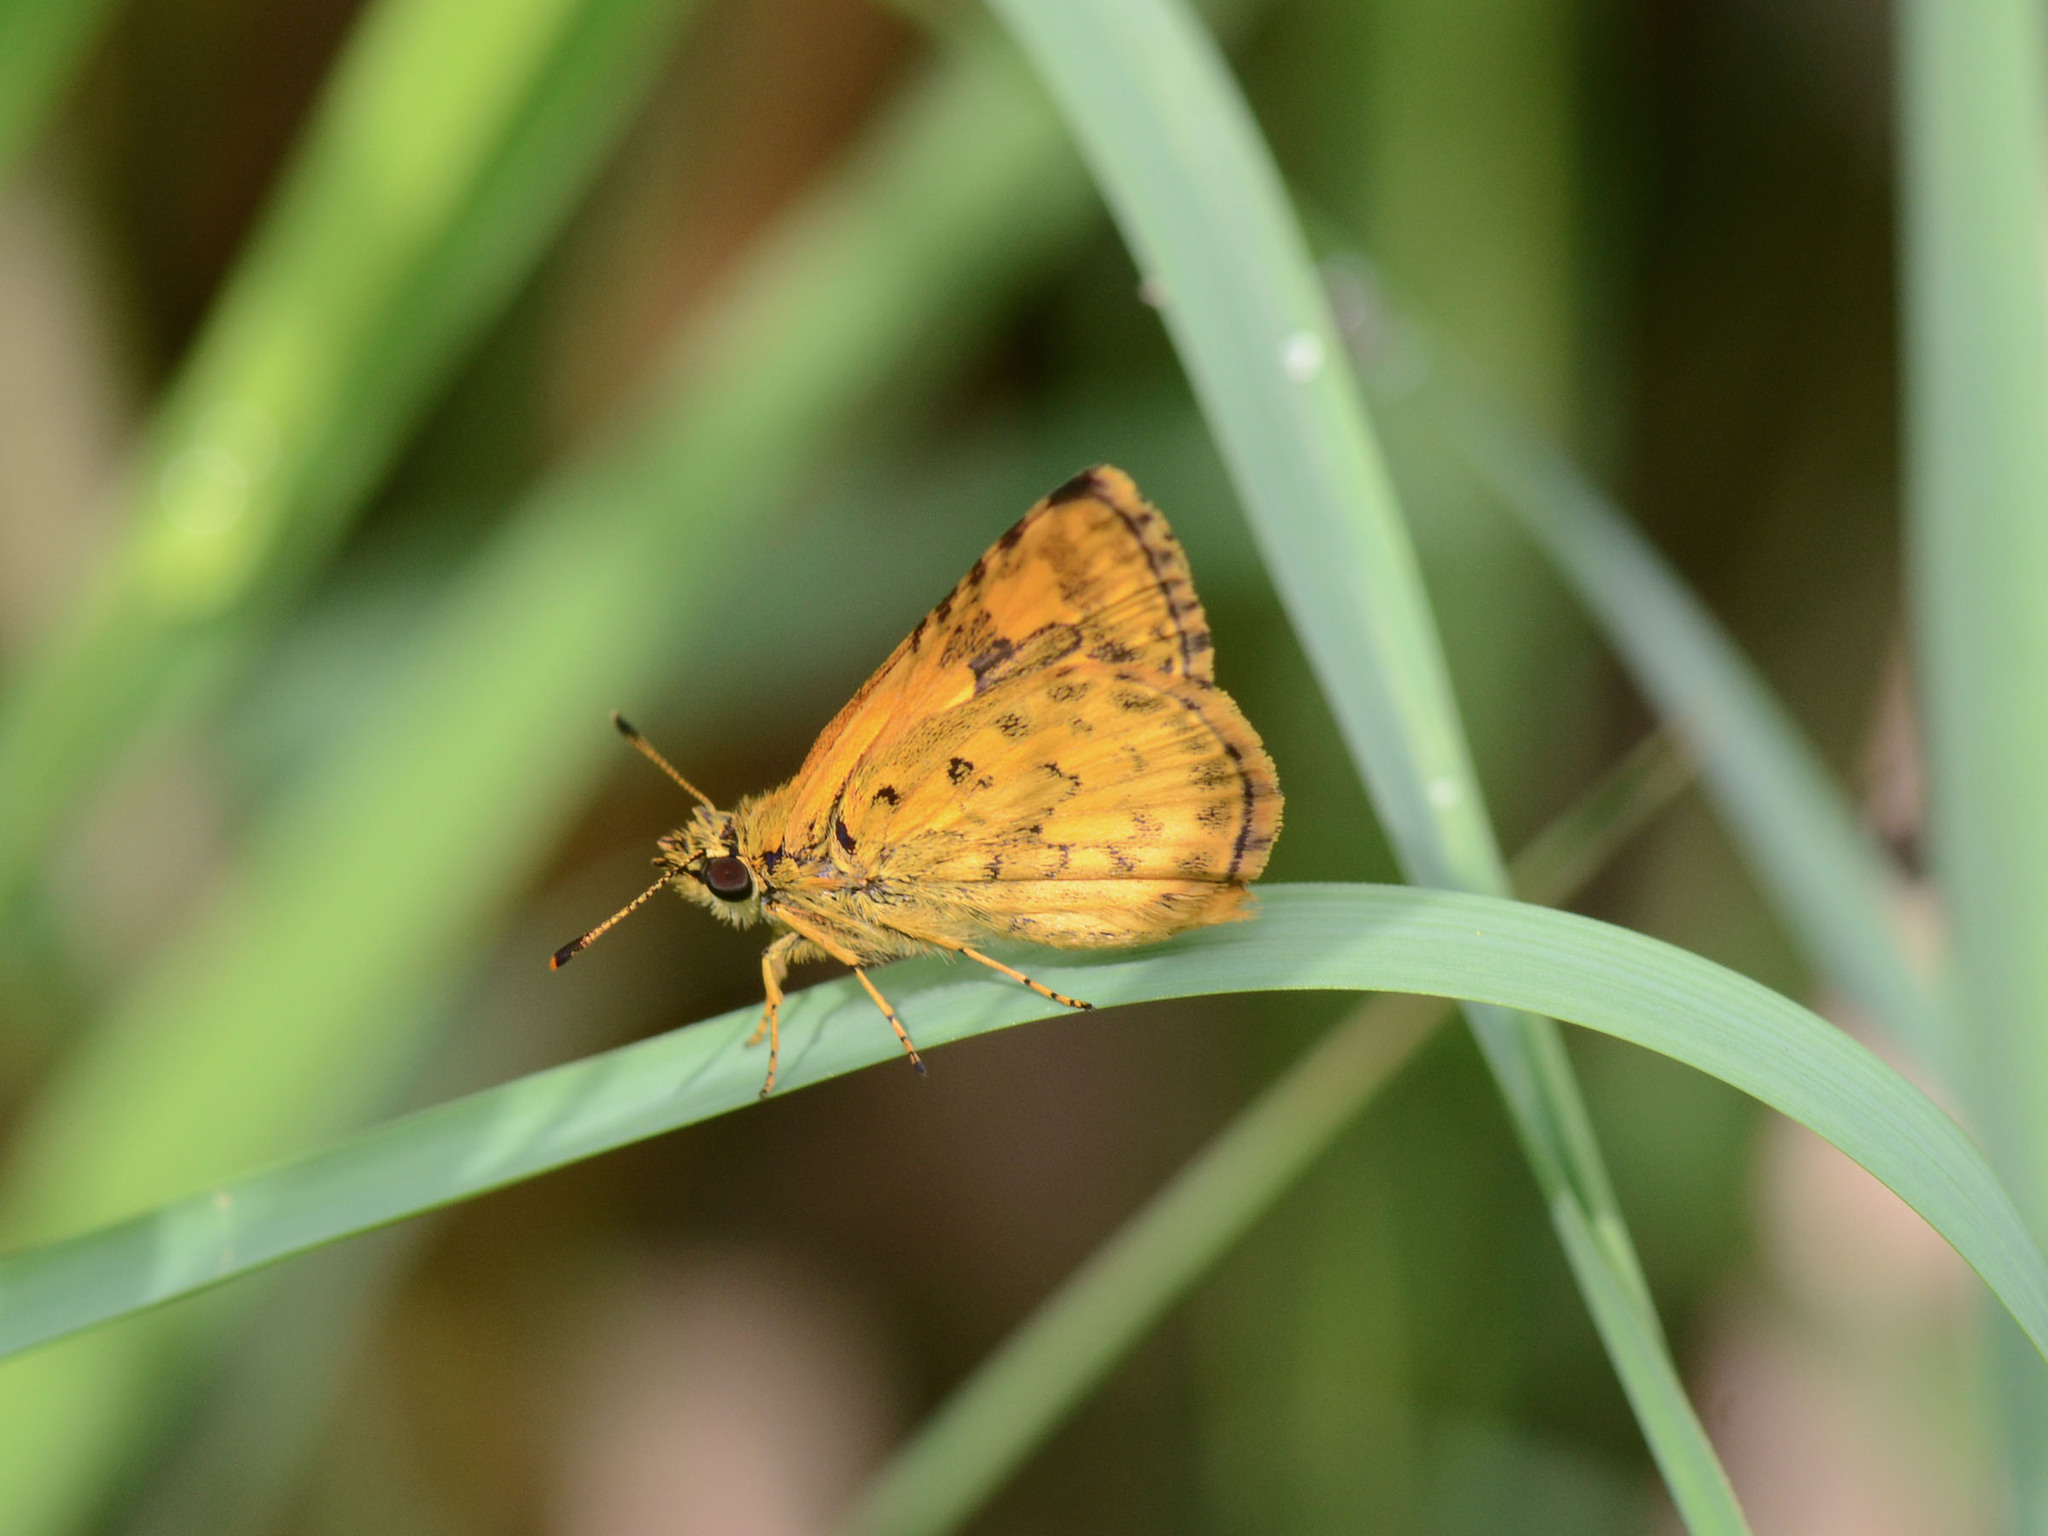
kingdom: Animalia
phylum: Arthropoda
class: Insecta
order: Lepidoptera
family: Hesperiidae
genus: Ampittia
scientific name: Ampittia dioscorides
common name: Common bush hopper
